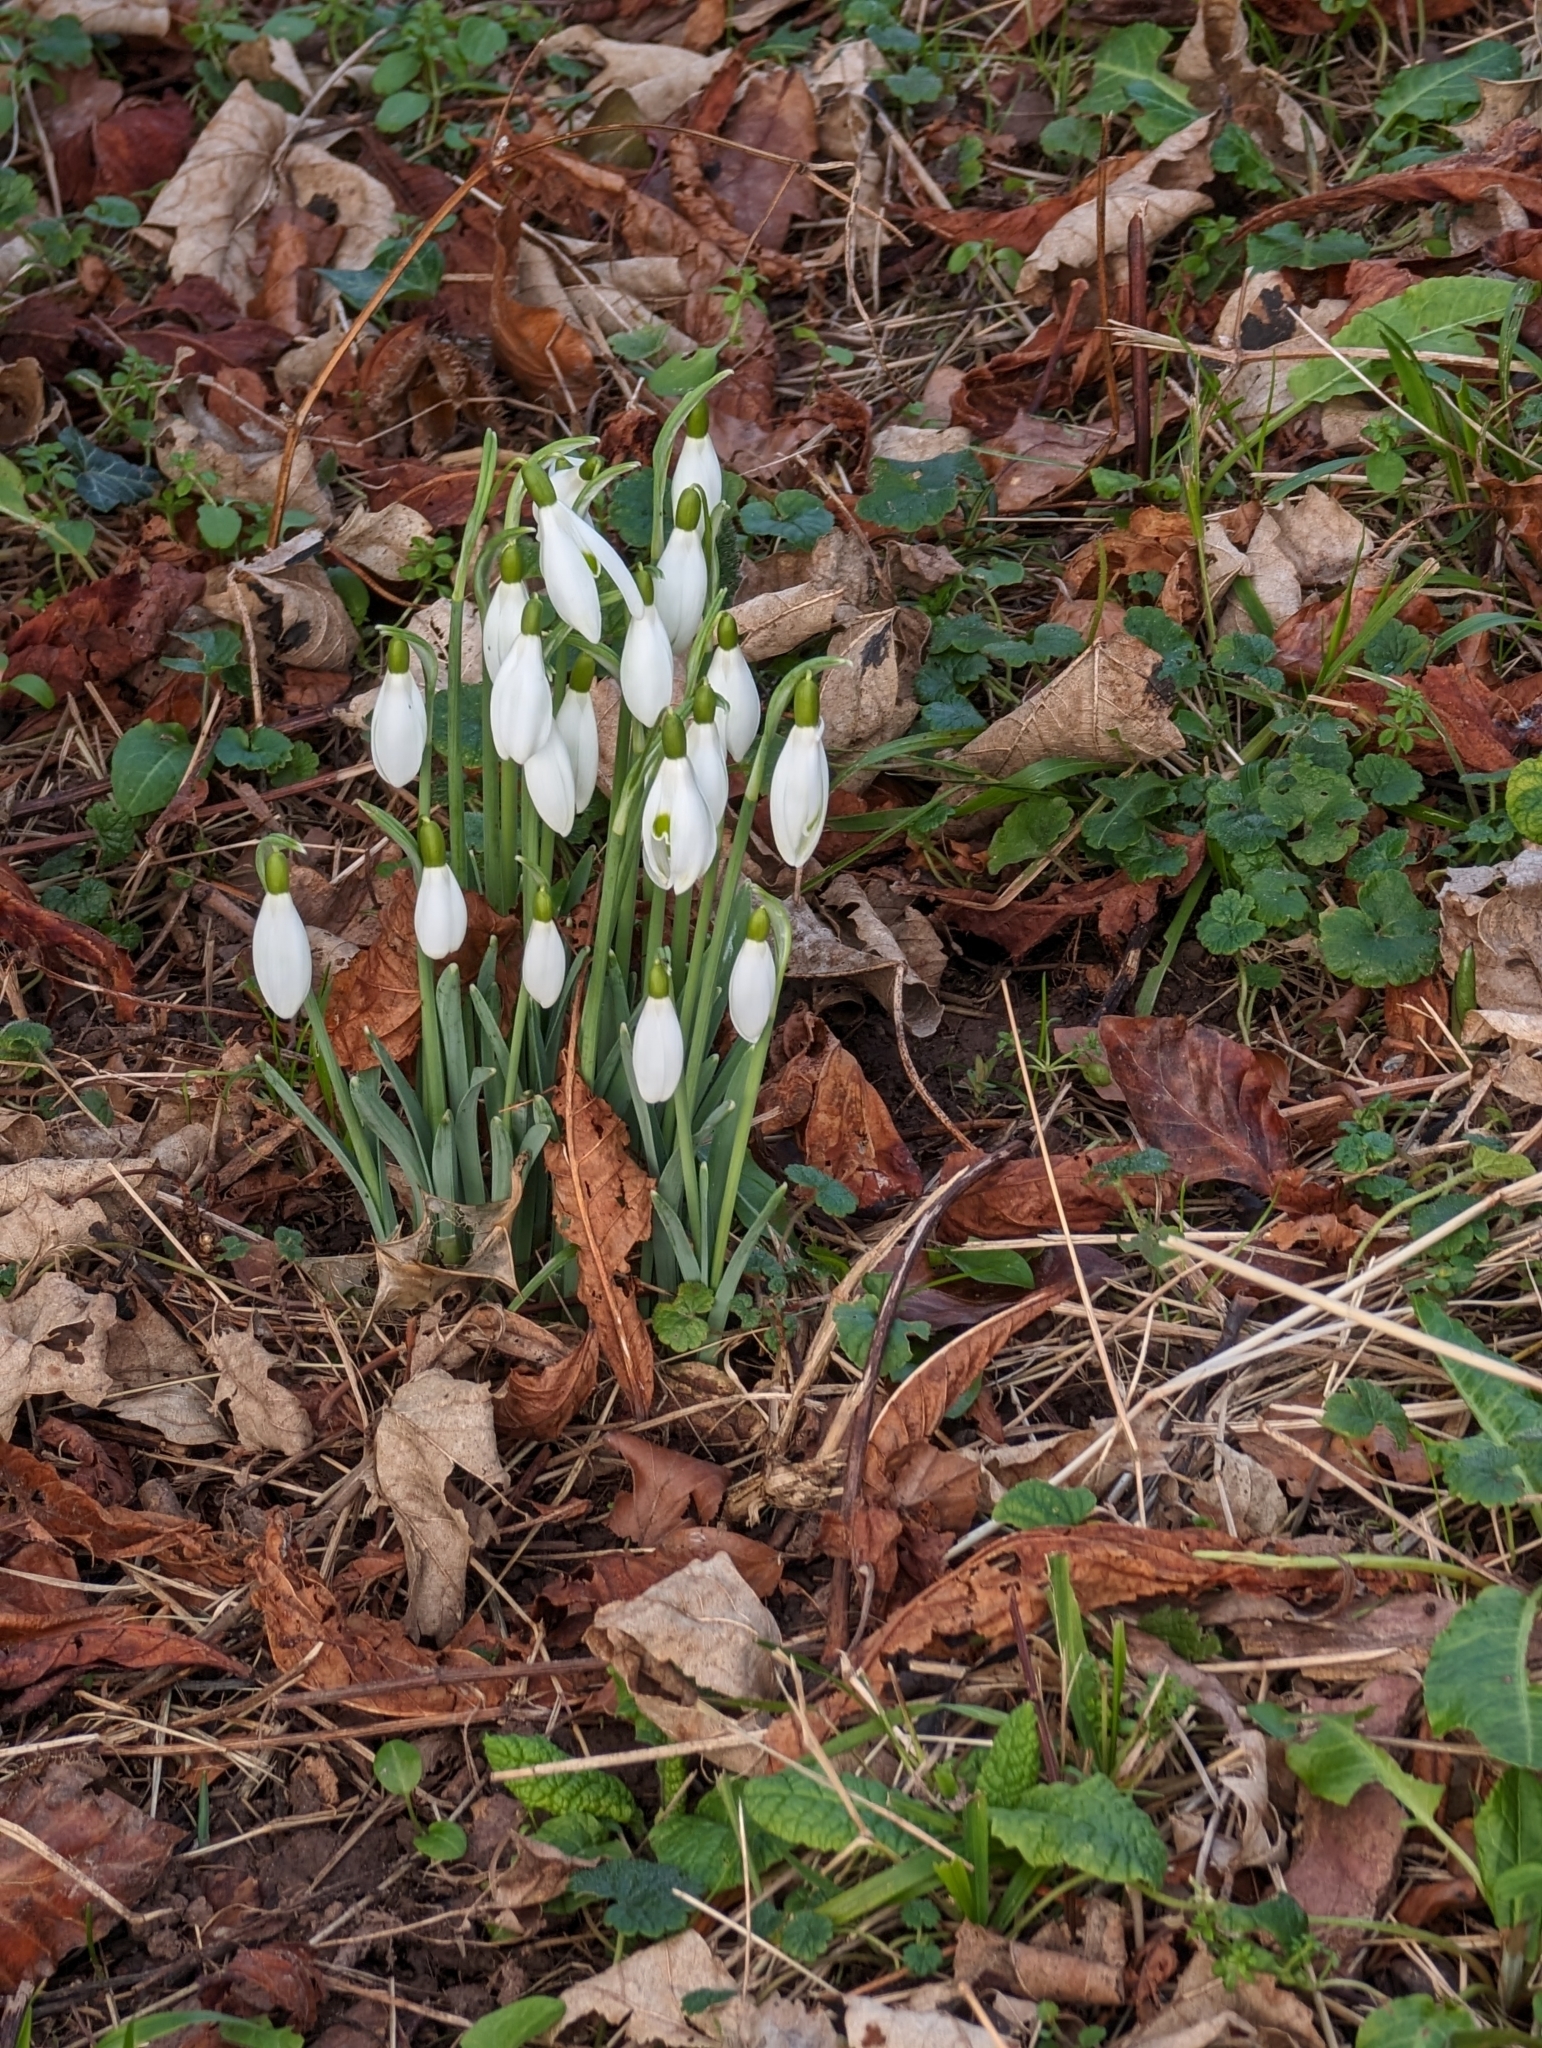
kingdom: Plantae
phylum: Tracheophyta
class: Liliopsida
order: Asparagales
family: Amaryllidaceae
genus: Galanthus
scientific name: Galanthus nivalis
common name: Snowdrop
